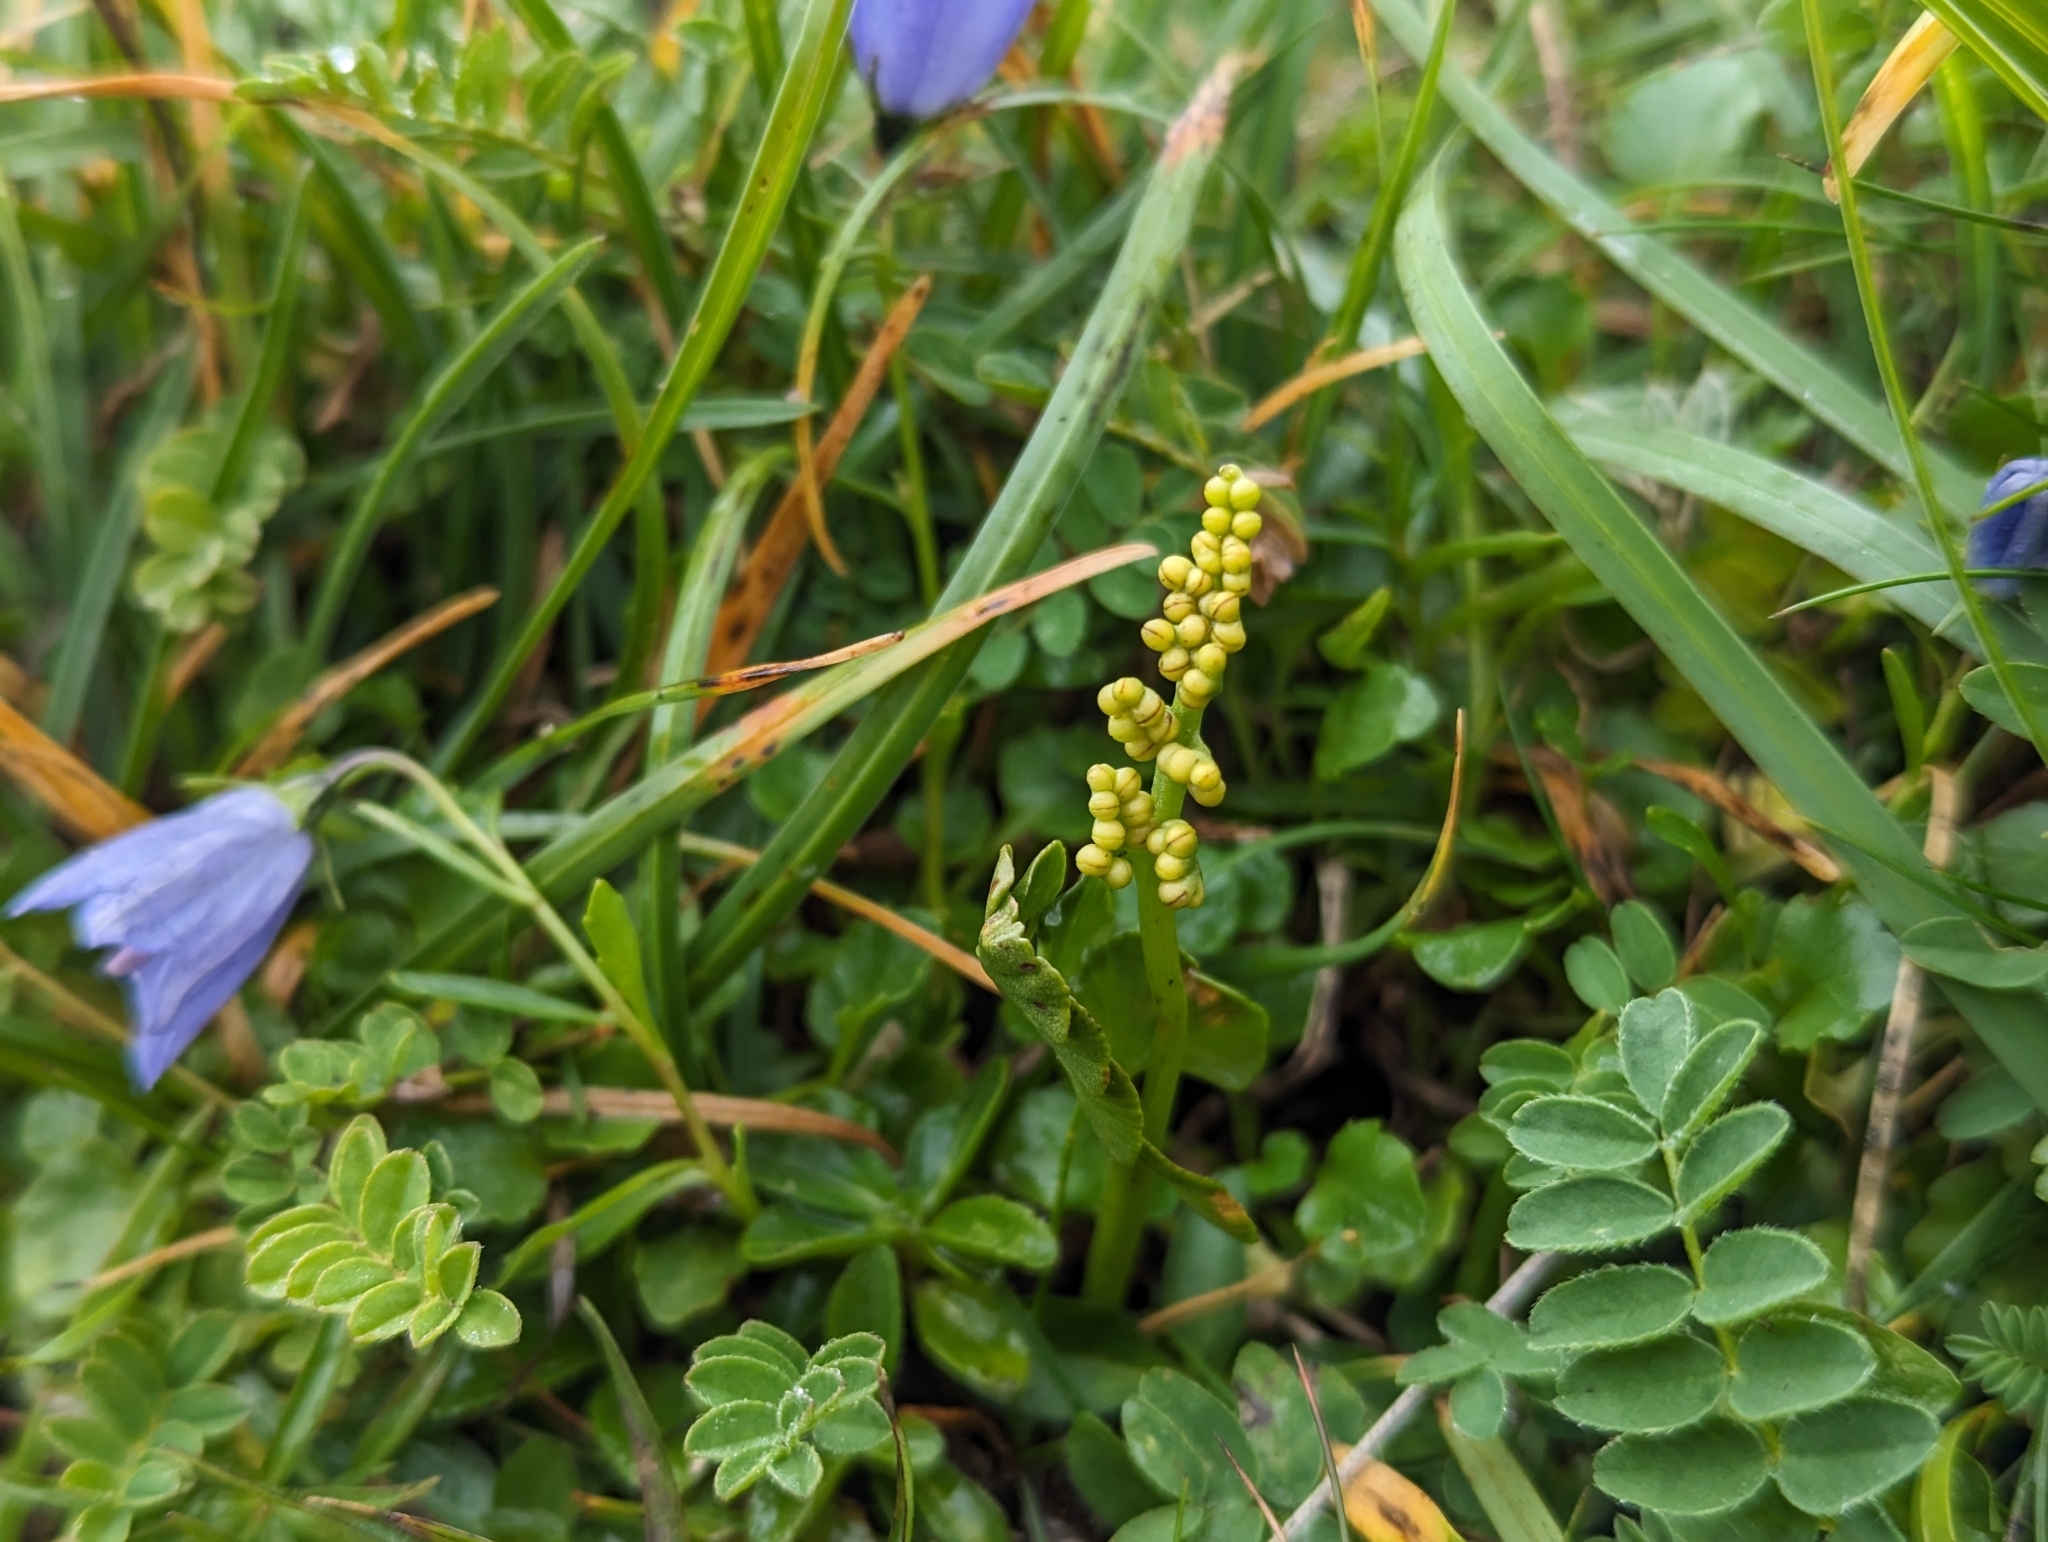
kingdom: Plantae
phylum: Tracheophyta
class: Polypodiopsida
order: Ophioglossales
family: Ophioglossaceae
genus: Botrychium
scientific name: Botrychium lunaria
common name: Moonwort
